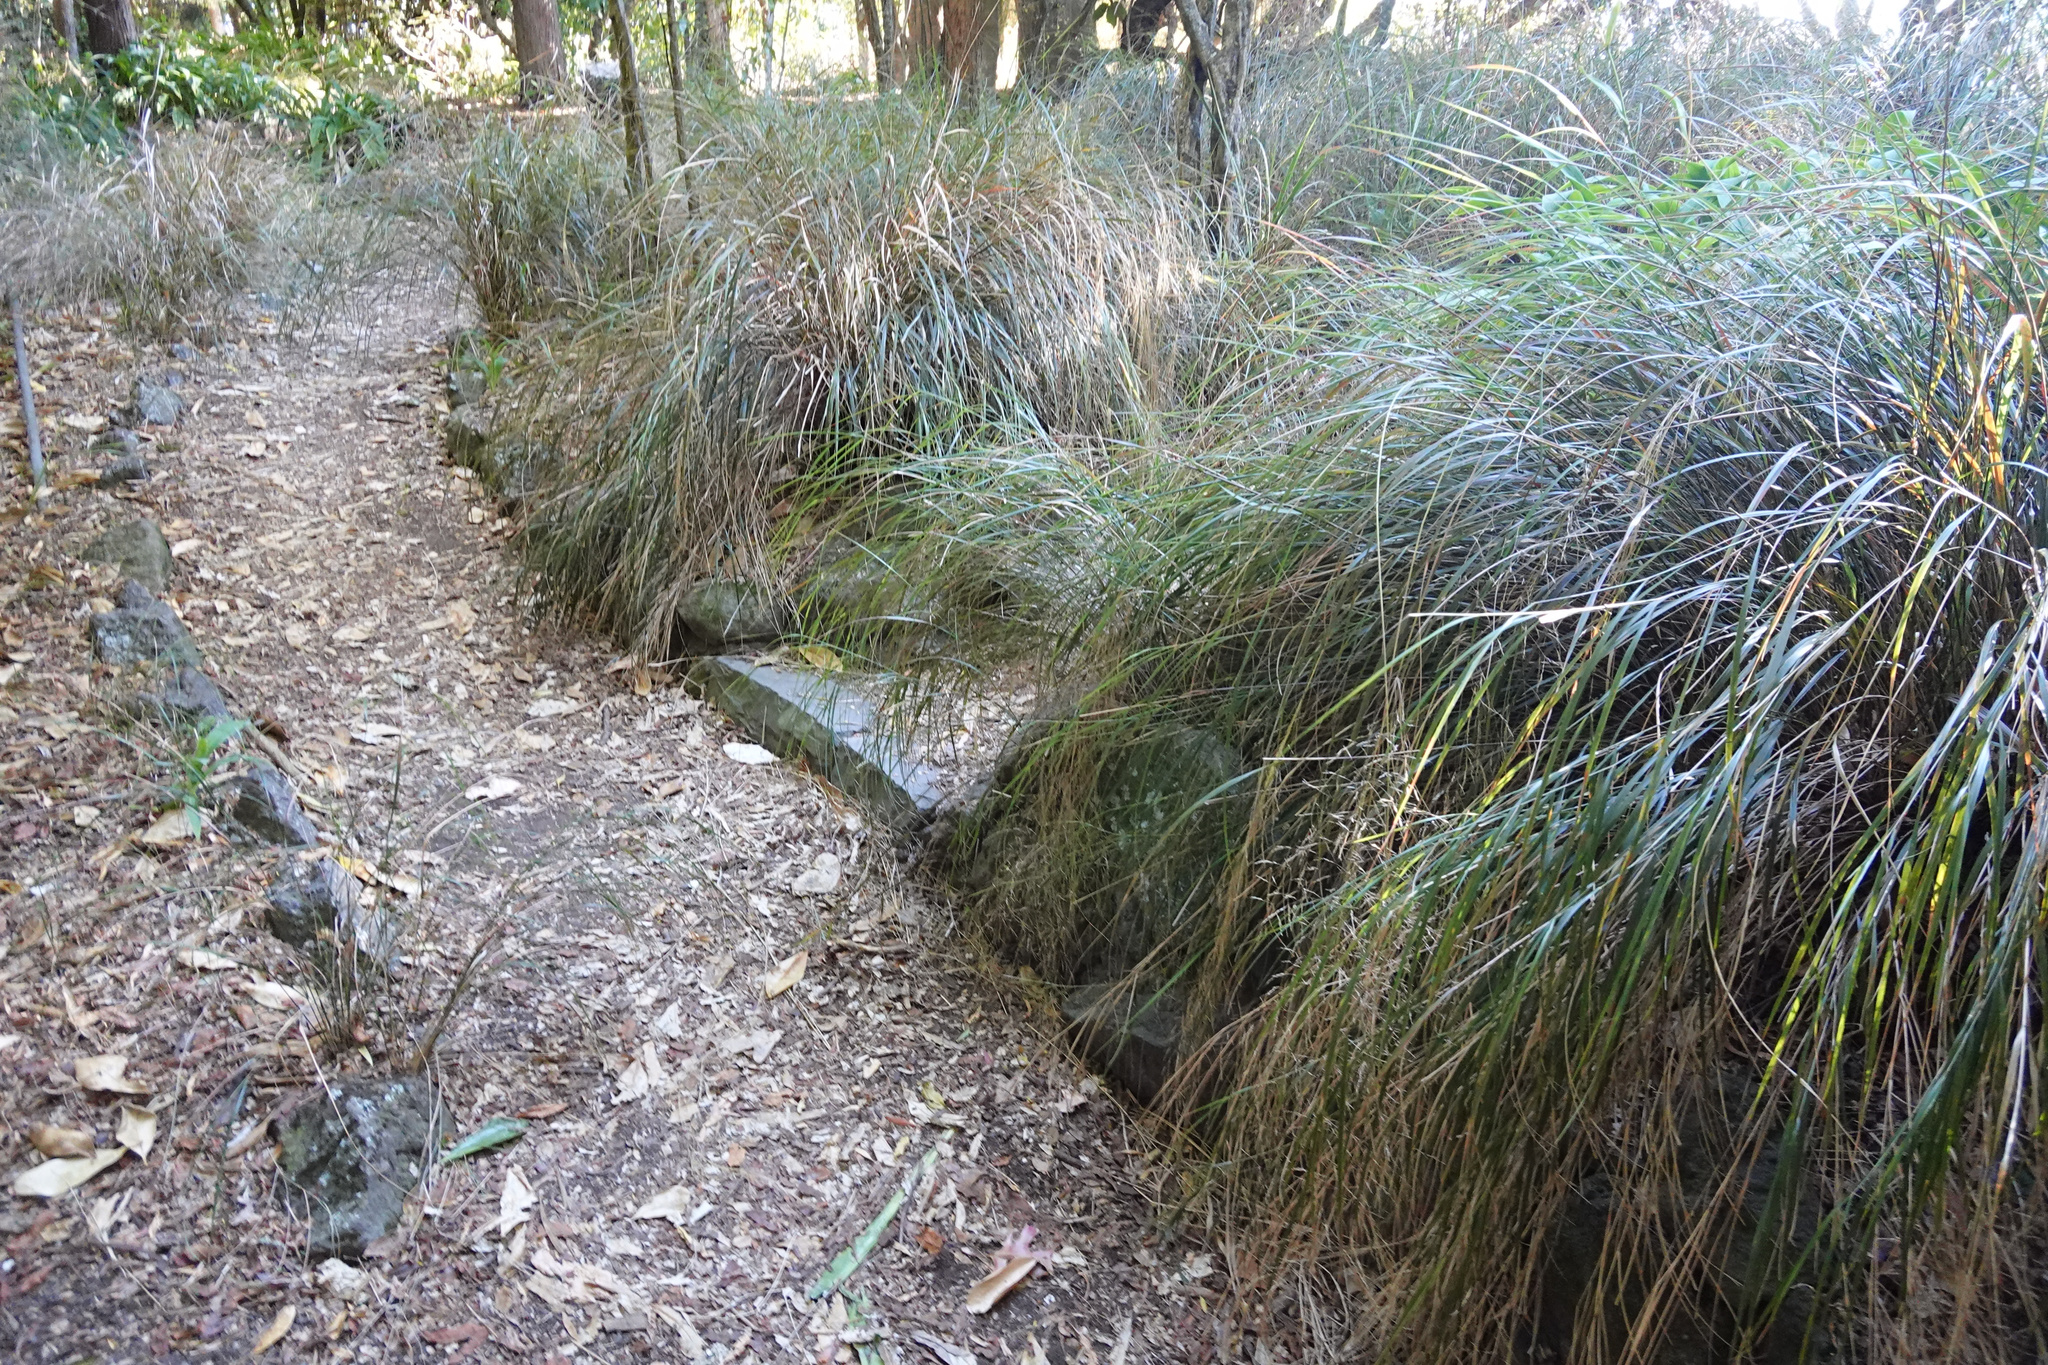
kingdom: Plantae
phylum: Tracheophyta
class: Liliopsida
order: Poales
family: Poaceae
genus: Anemanthele
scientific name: Anemanthele lessoniana
